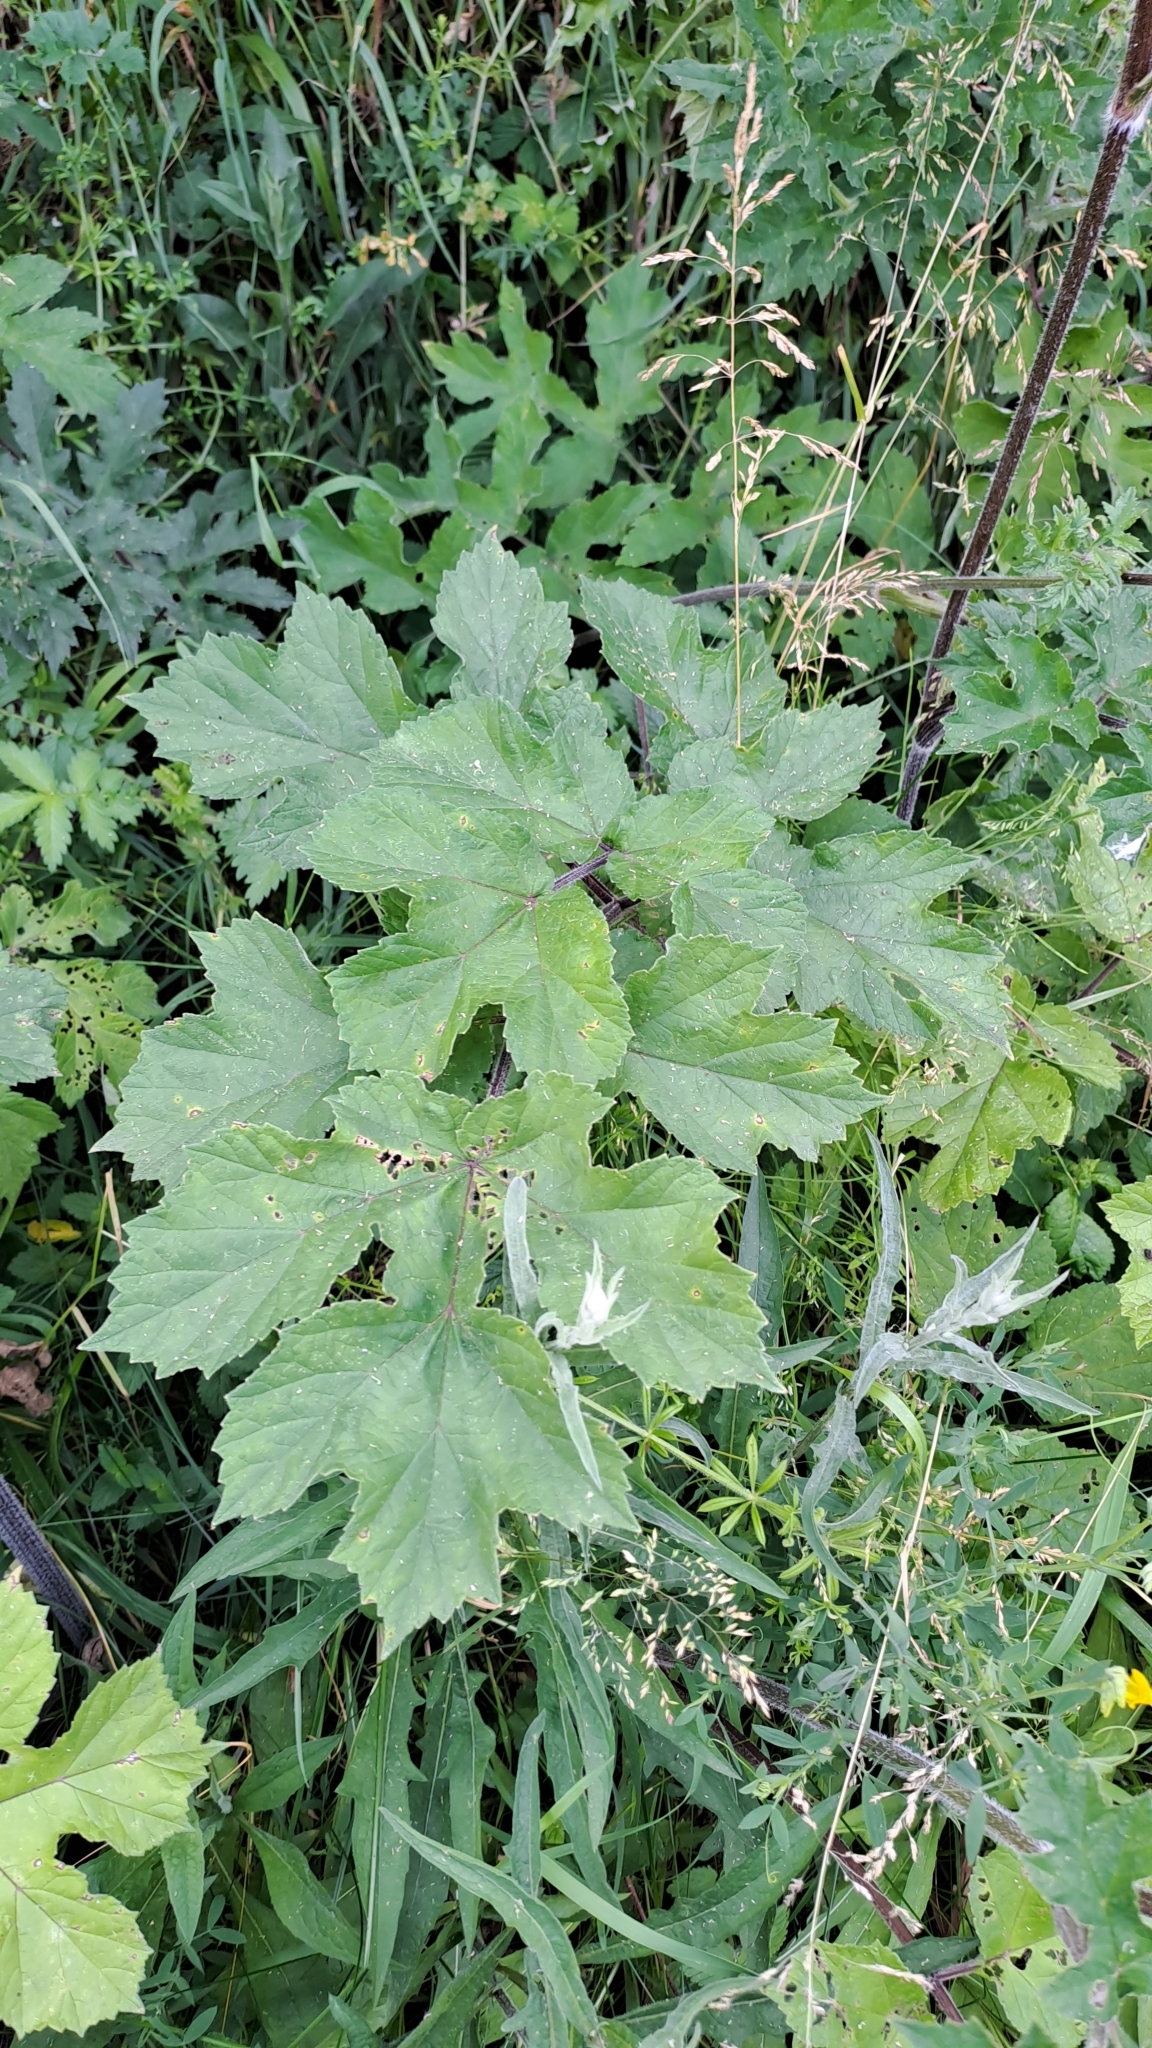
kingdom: Plantae
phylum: Tracheophyta
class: Magnoliopsida
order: Apiales
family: Apiaceae
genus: Heracleum
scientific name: Heracleum sphondylium
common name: Hogweed
